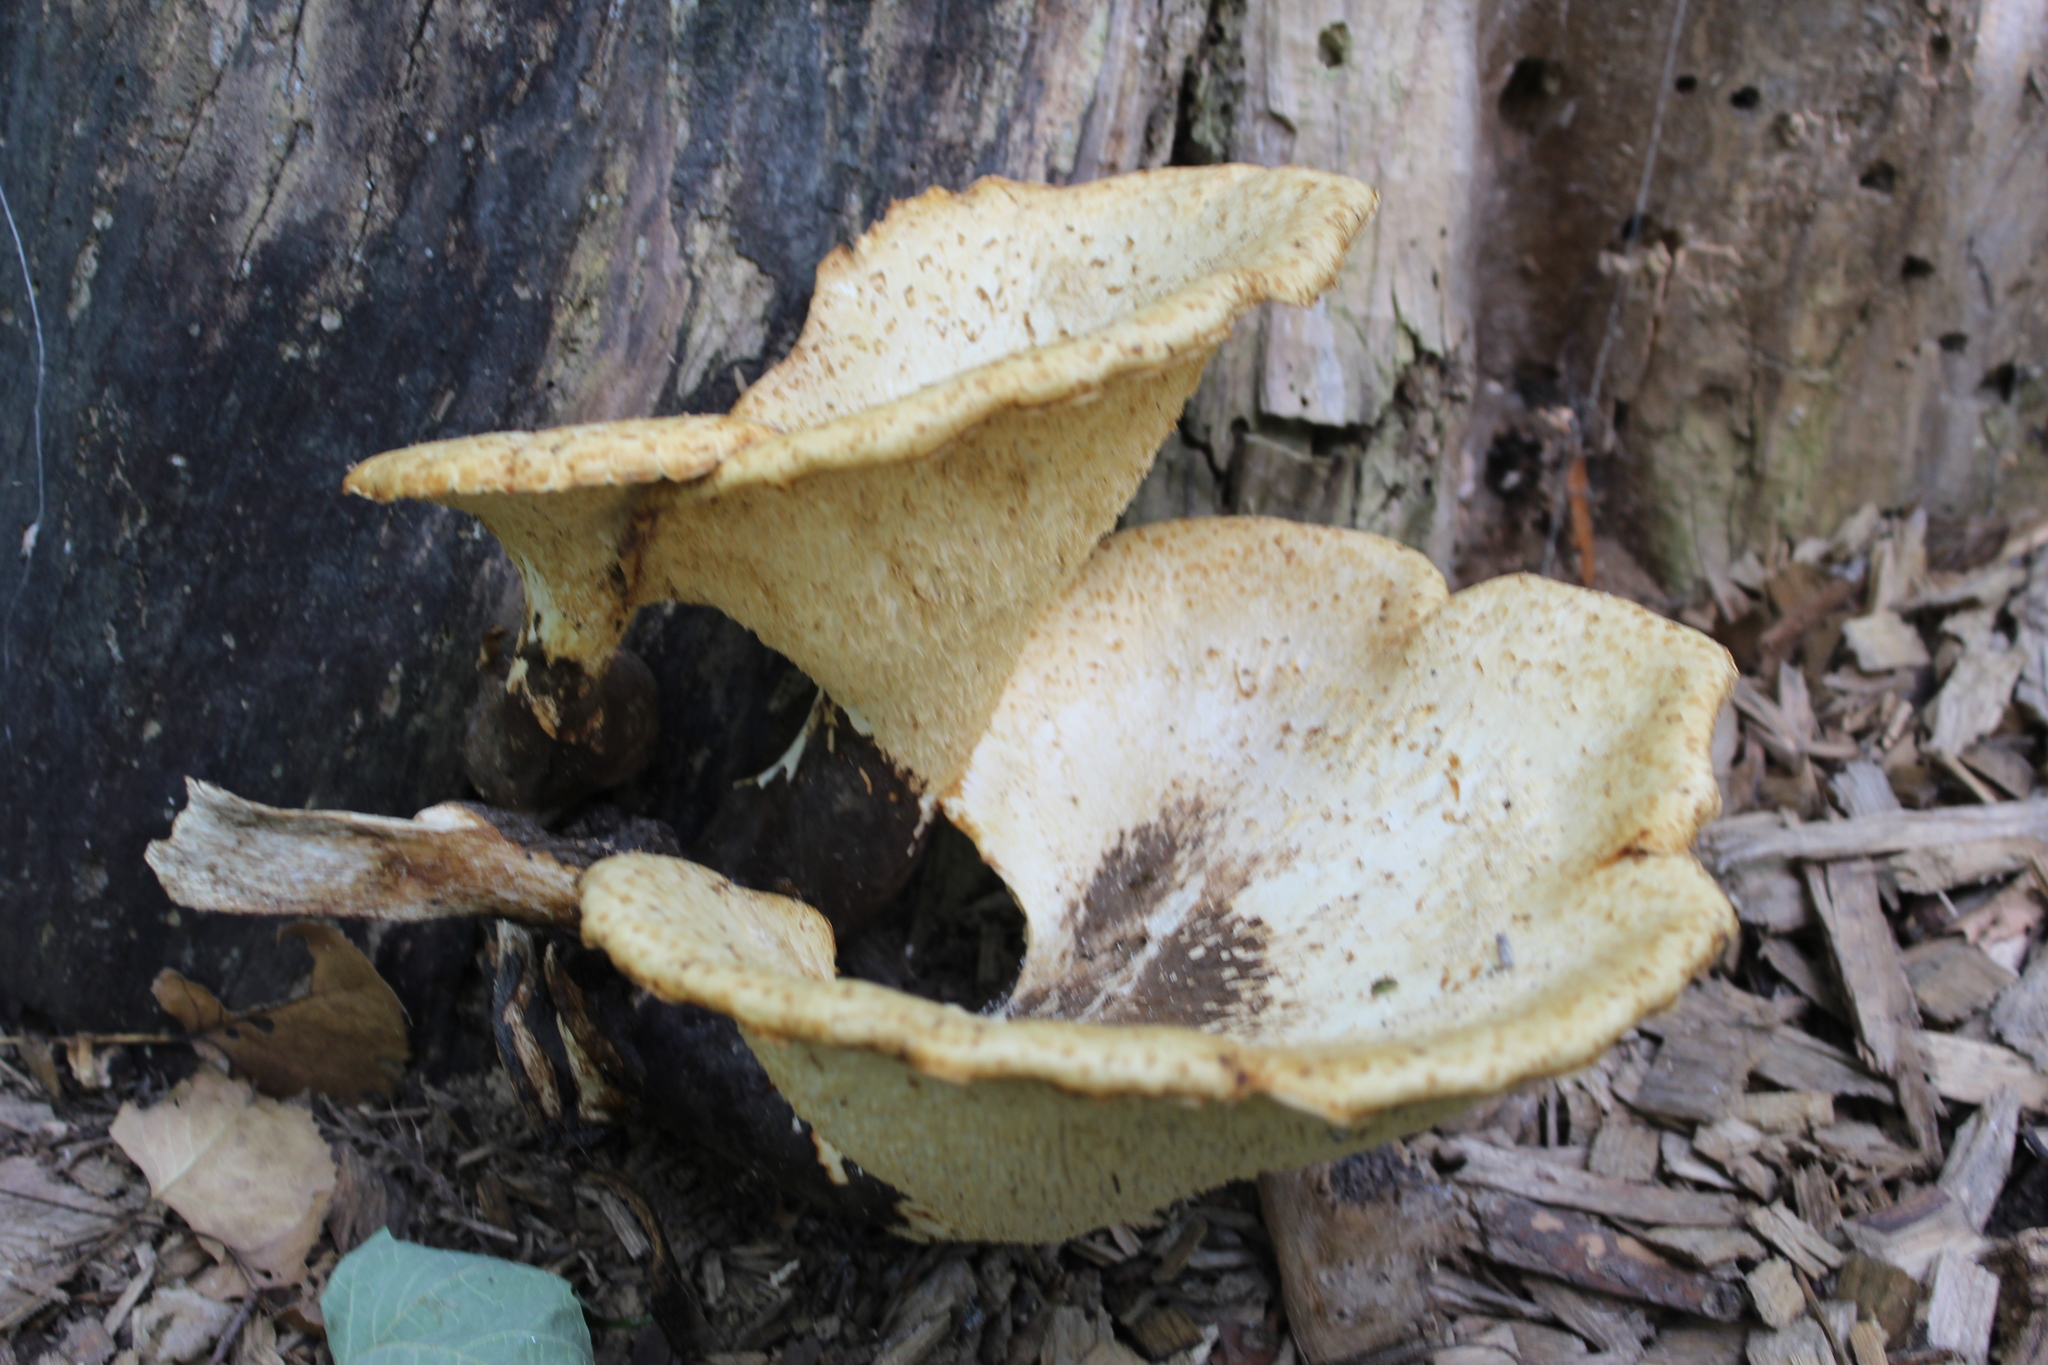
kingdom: Fungi
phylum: Basidiomycota
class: Agaricomycetes
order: Polyporales
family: Polyporaceae
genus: Cerioporus
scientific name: Cerioporus squamosus
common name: Dryad's saddle
